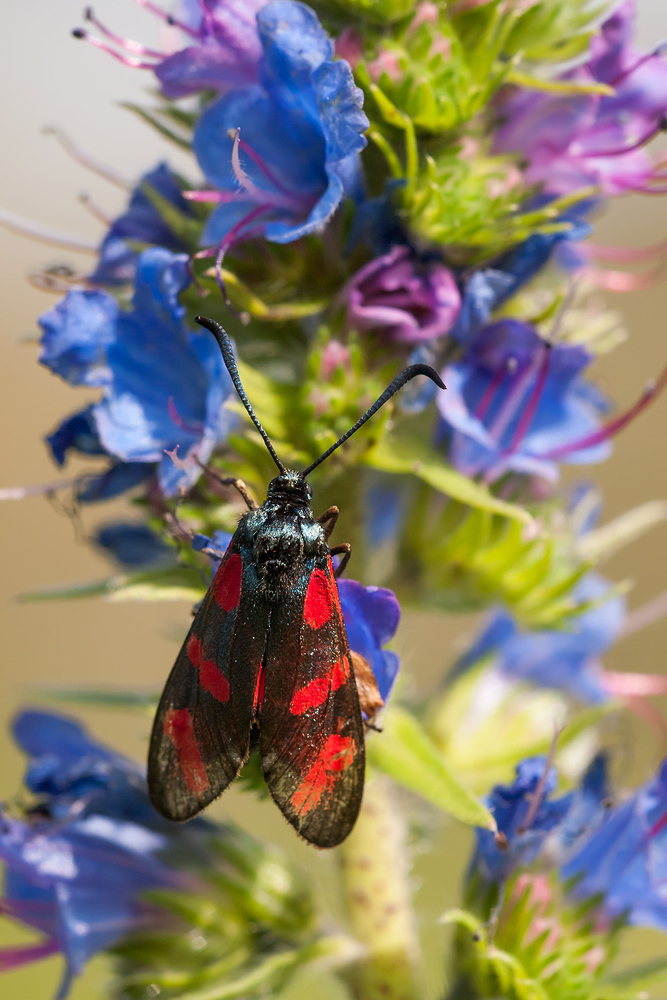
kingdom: Animalia
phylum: Arthropoda
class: Insecta
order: Lepidoptera
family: Zygaenidae
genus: Zygaena
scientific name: Zygaena filipendulae
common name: Six-spot burnet
